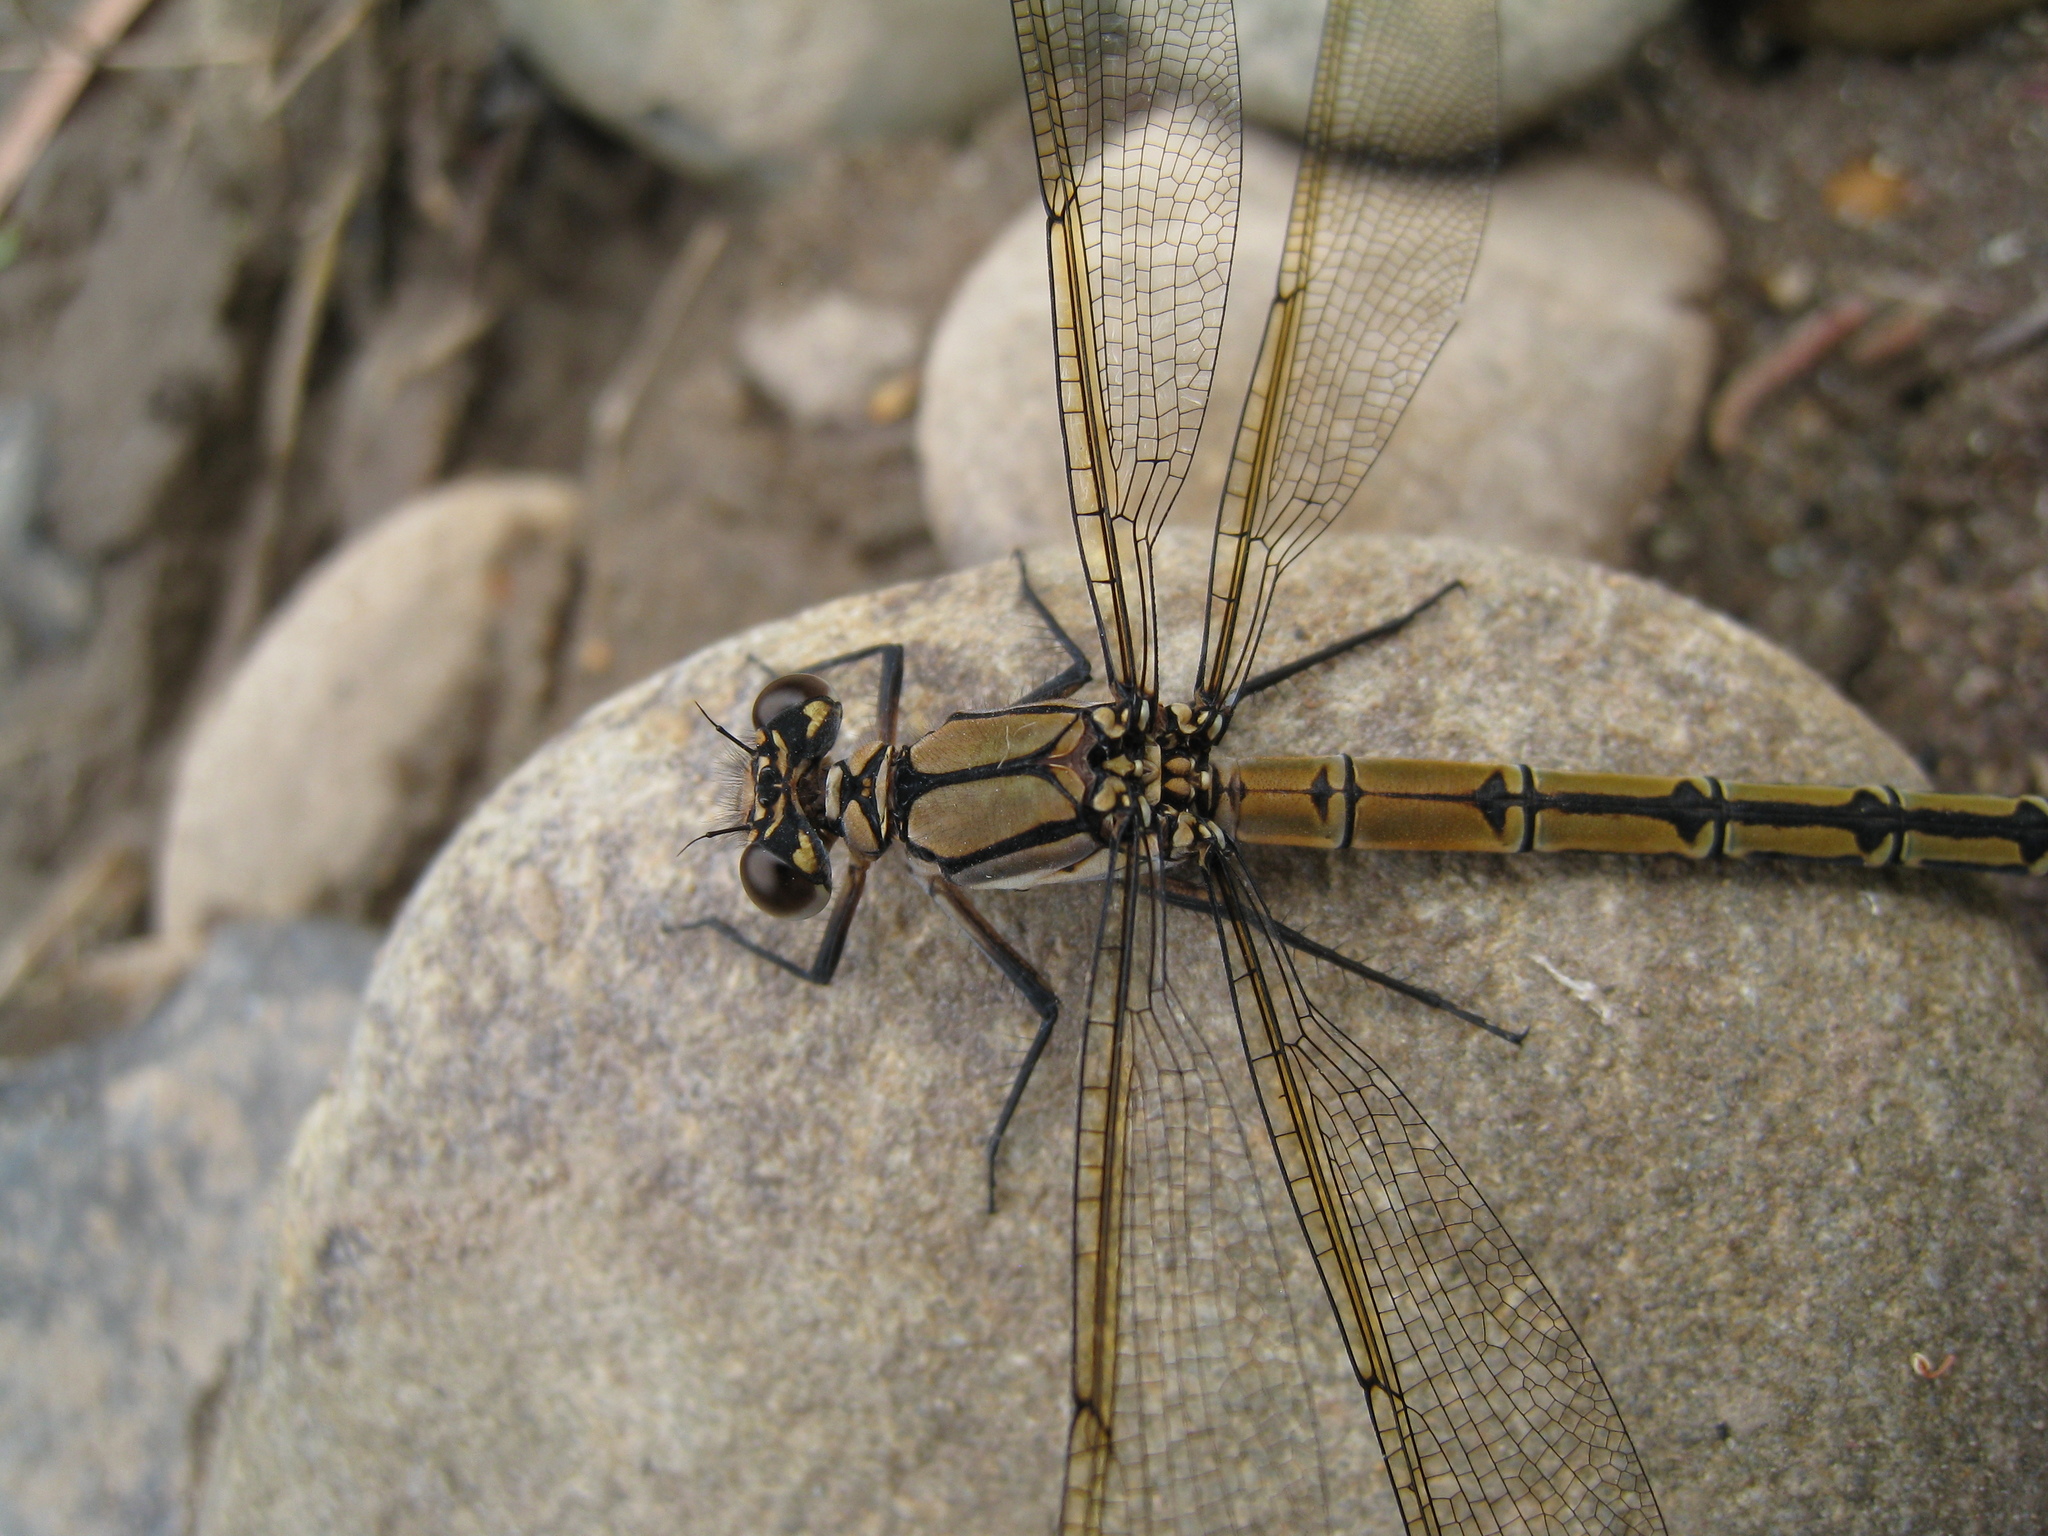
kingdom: Animalia
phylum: Arthropoda
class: Insecta
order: Odonata
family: Lestoideidae
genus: Diphlebia
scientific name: Diphlebia nymphoides
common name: Arrowhead rockmaster
